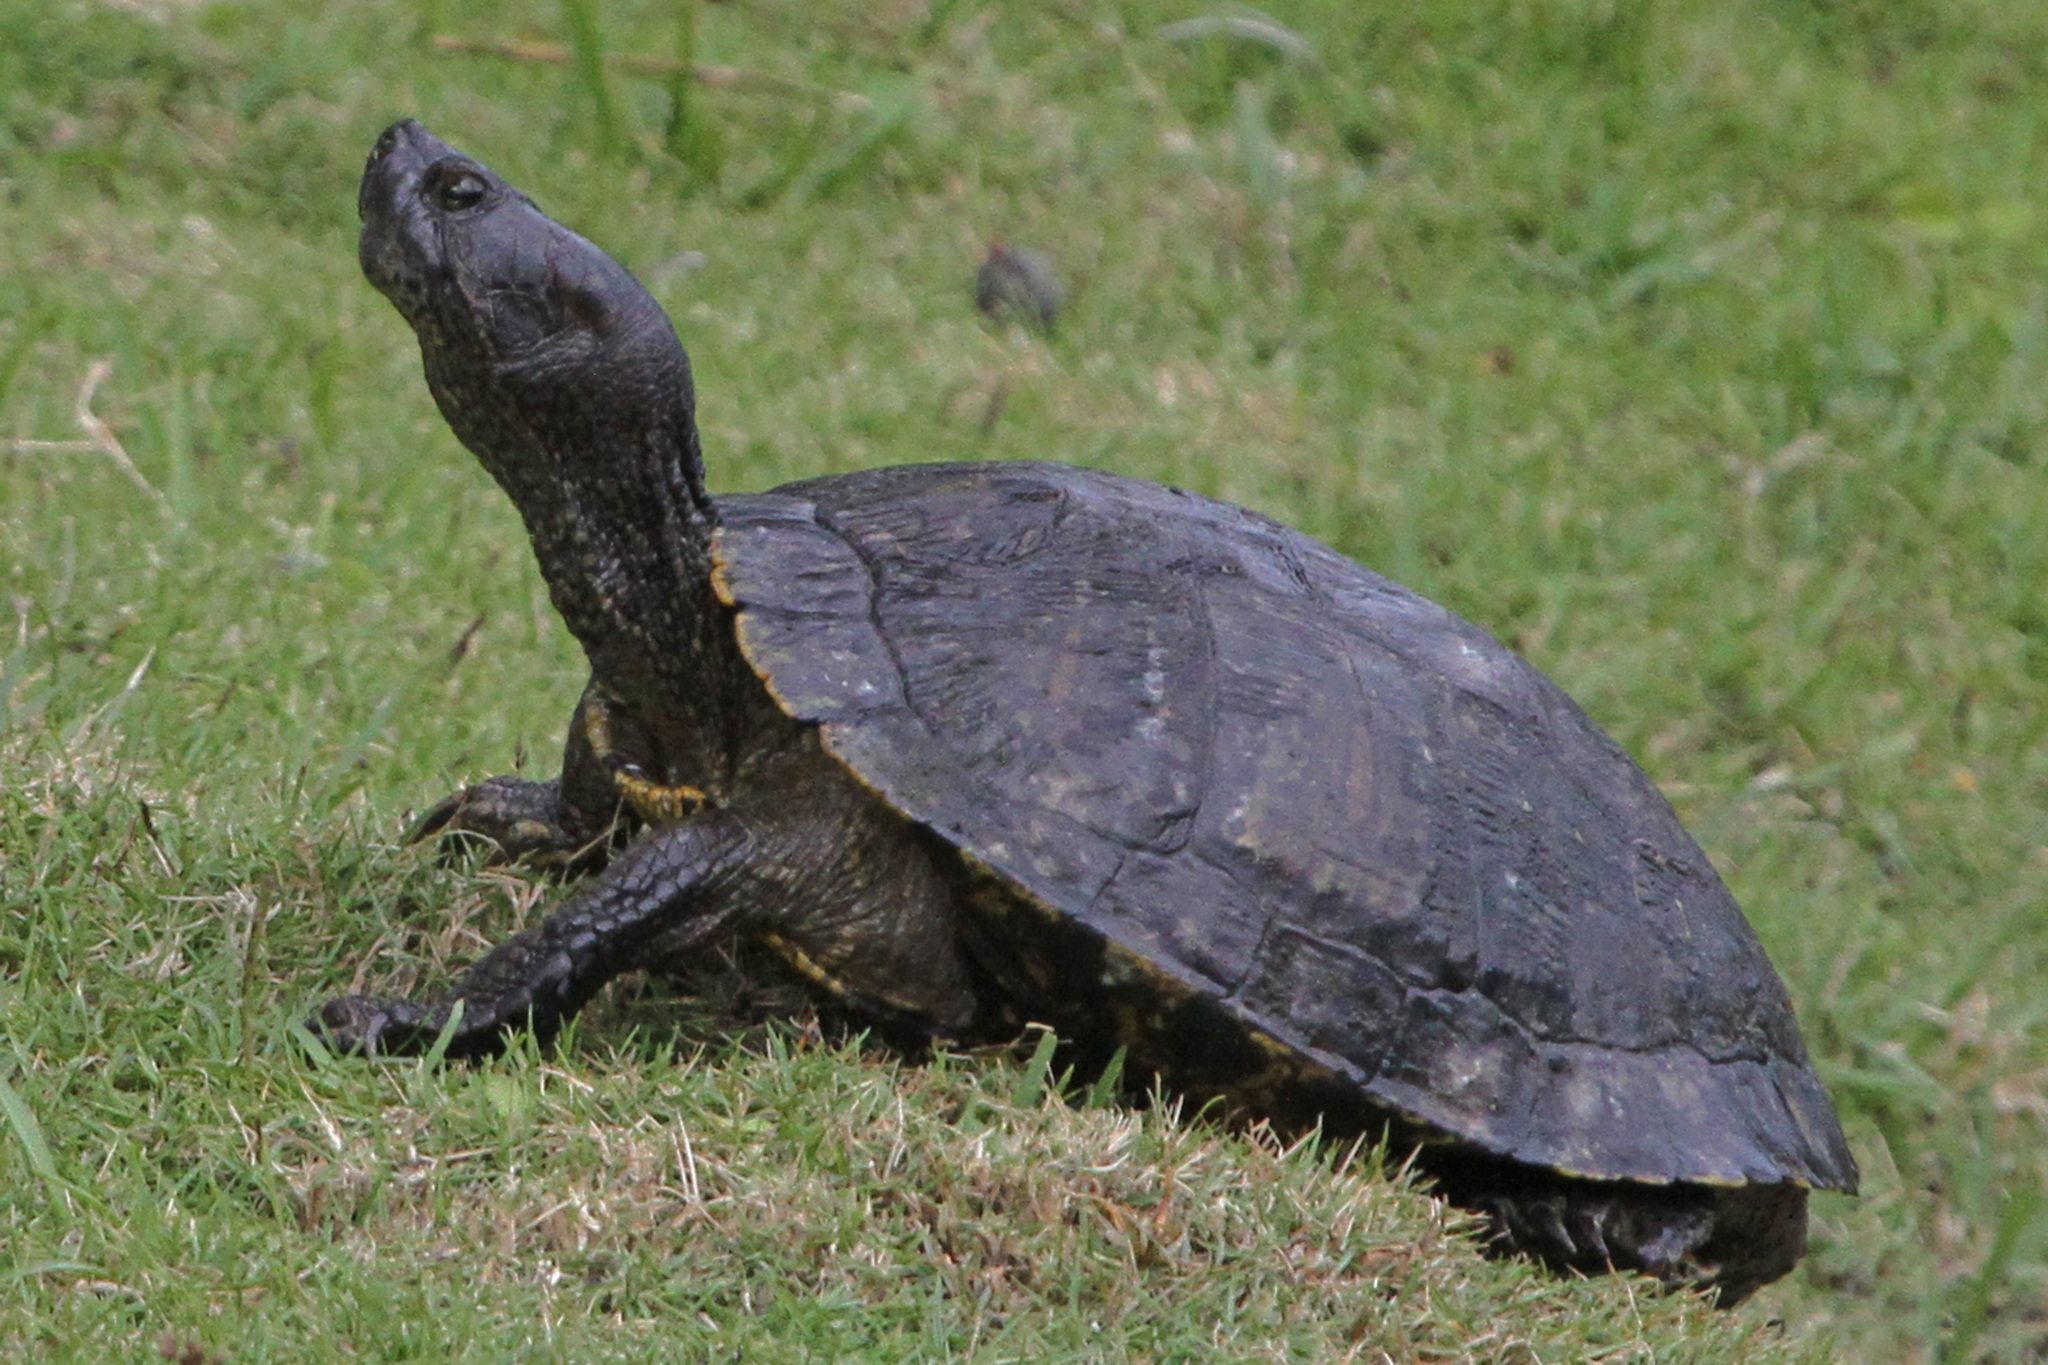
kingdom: Animalia
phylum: Chordata
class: Testudines
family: Emydidae
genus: Trachemys
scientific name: Trachemys scripta
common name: Slider
